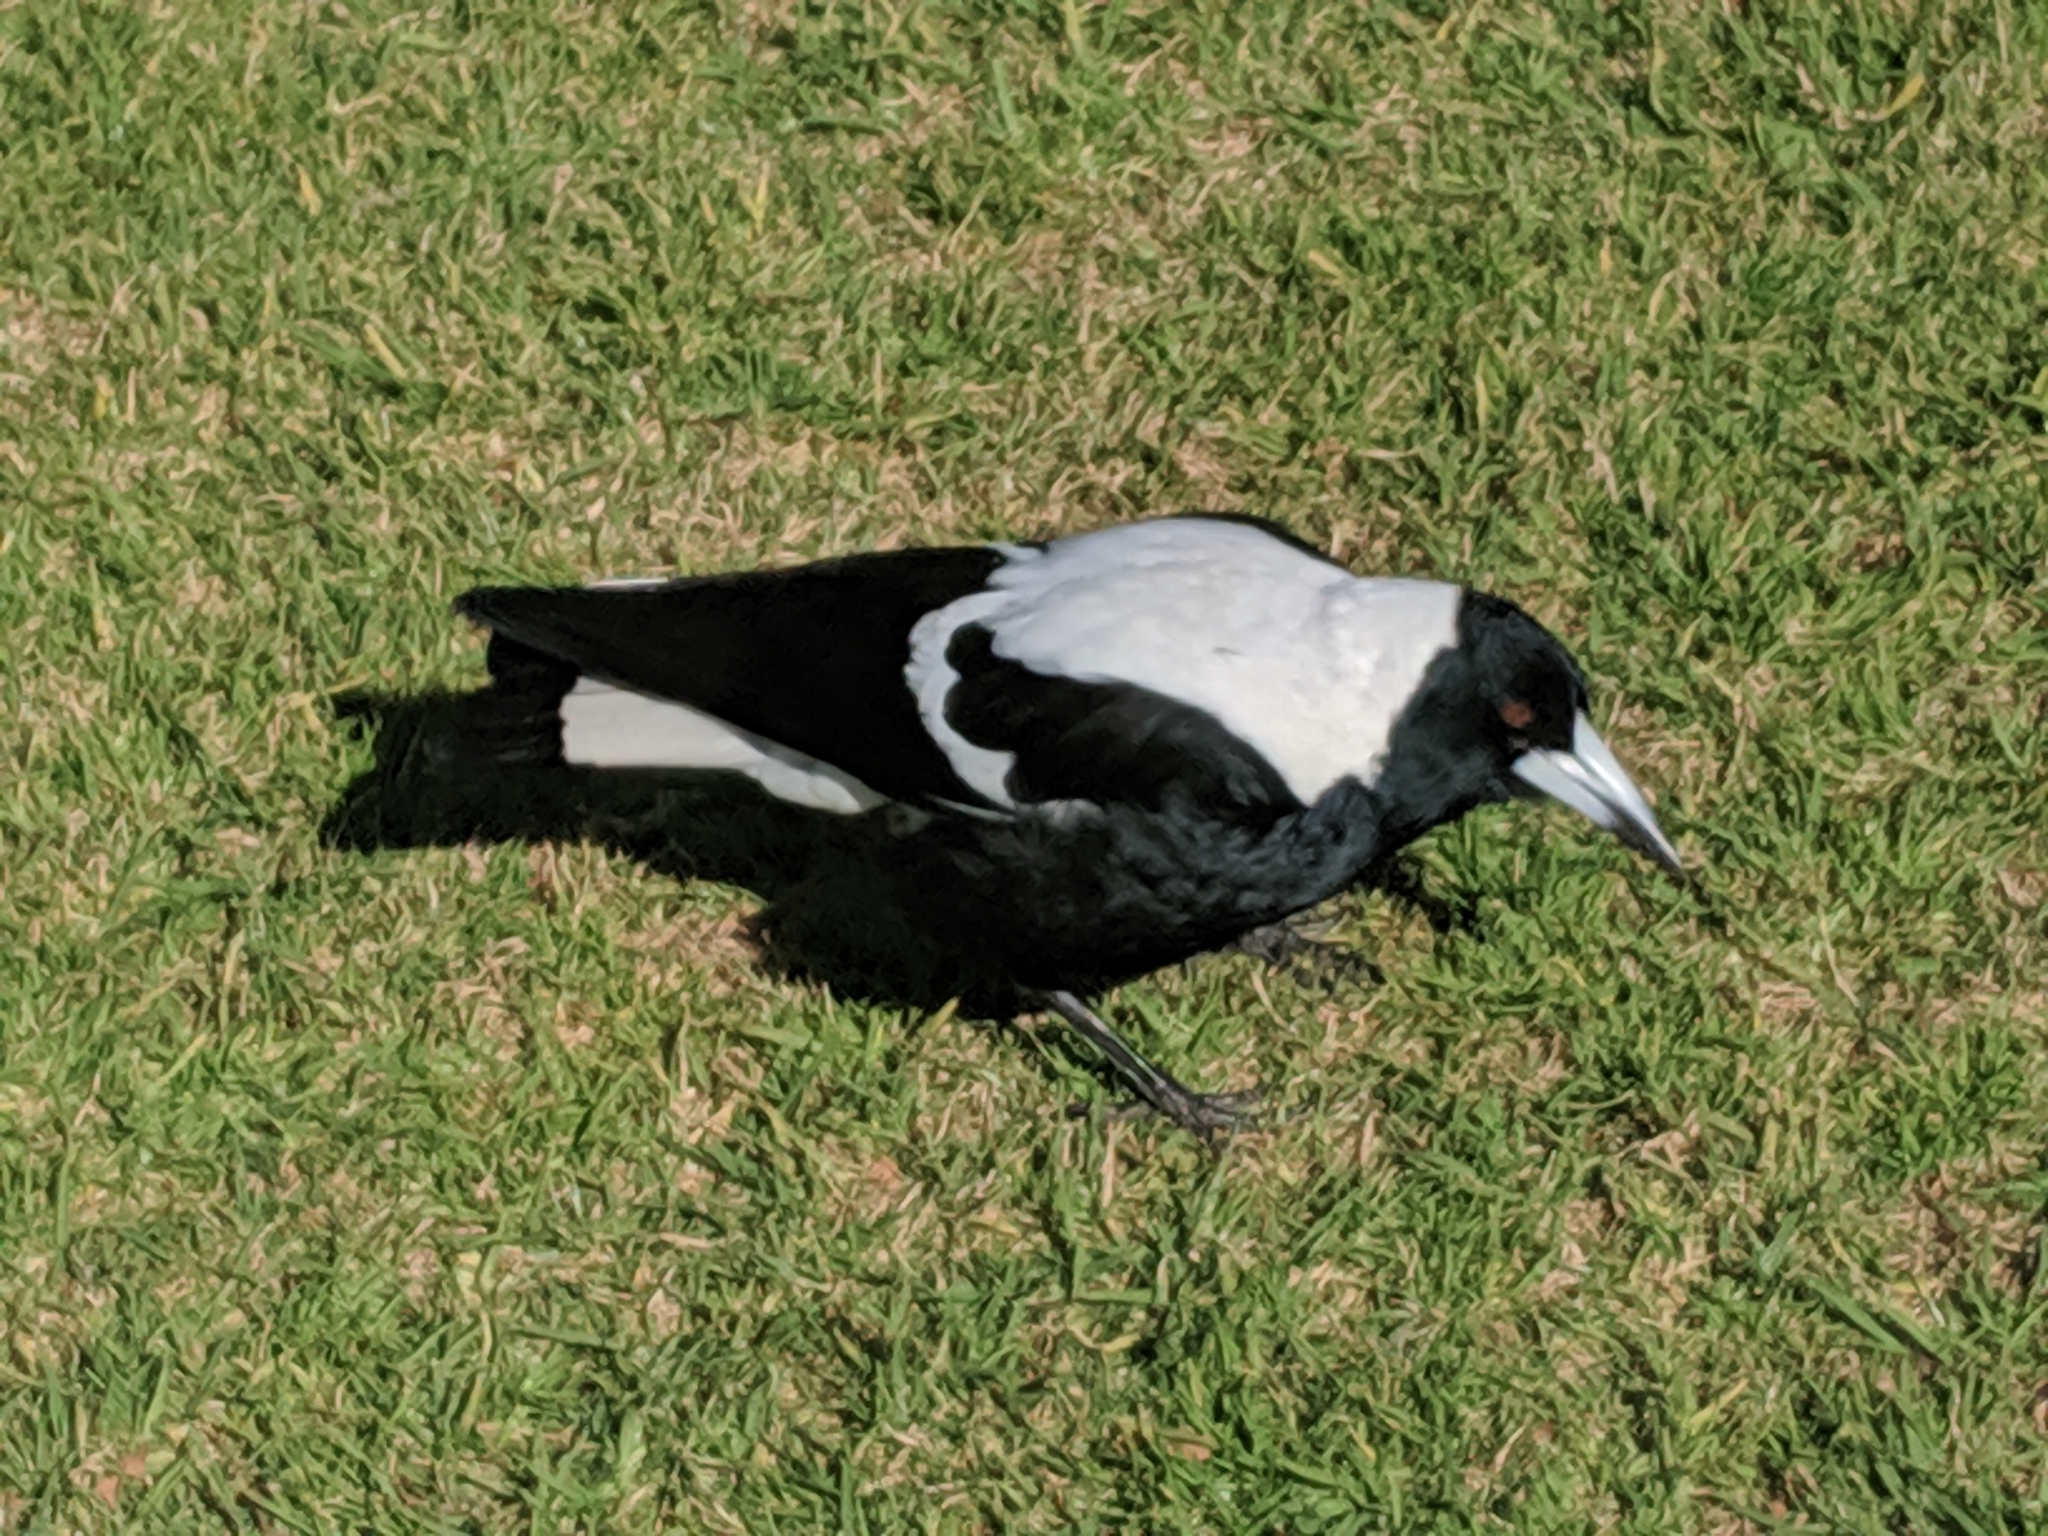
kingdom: Animalia
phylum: Chordata
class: Aves
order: Passeriformes
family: Cracticidae
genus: Gymnorhina
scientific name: Gymnorhina tibicen
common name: Australian magpie
